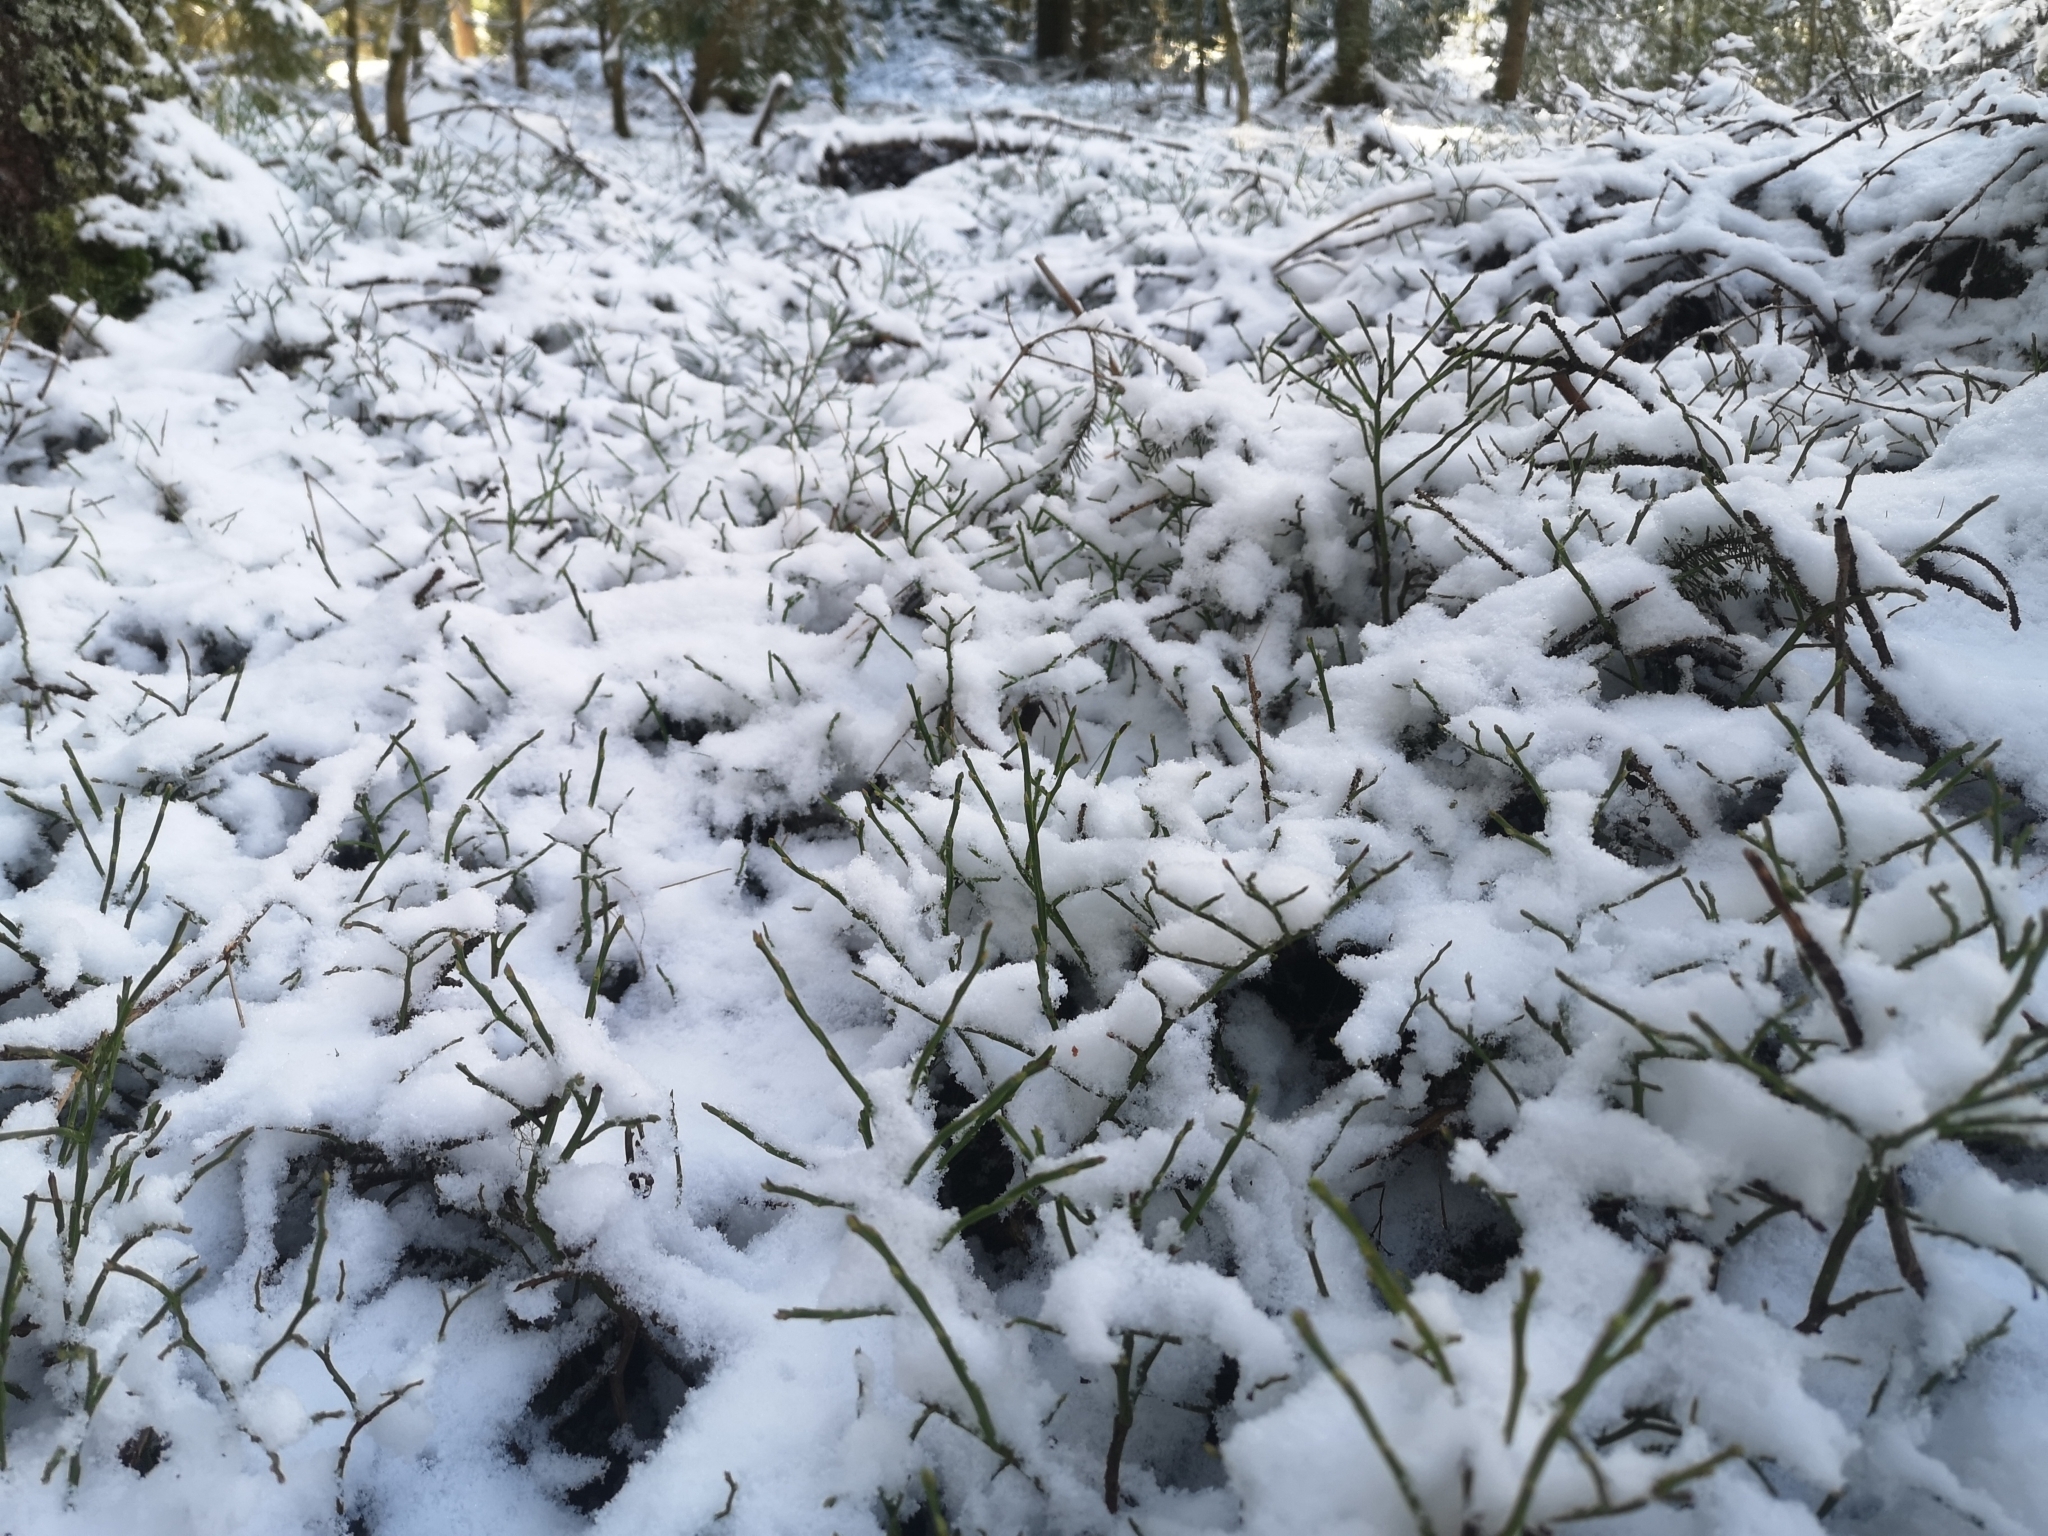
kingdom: Plantae
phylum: Tracheophyta
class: Magnoliopsida
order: Ericales
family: Ericaceae
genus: Vaccinium
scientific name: Vaccinium myrtillus
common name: Bilberry
